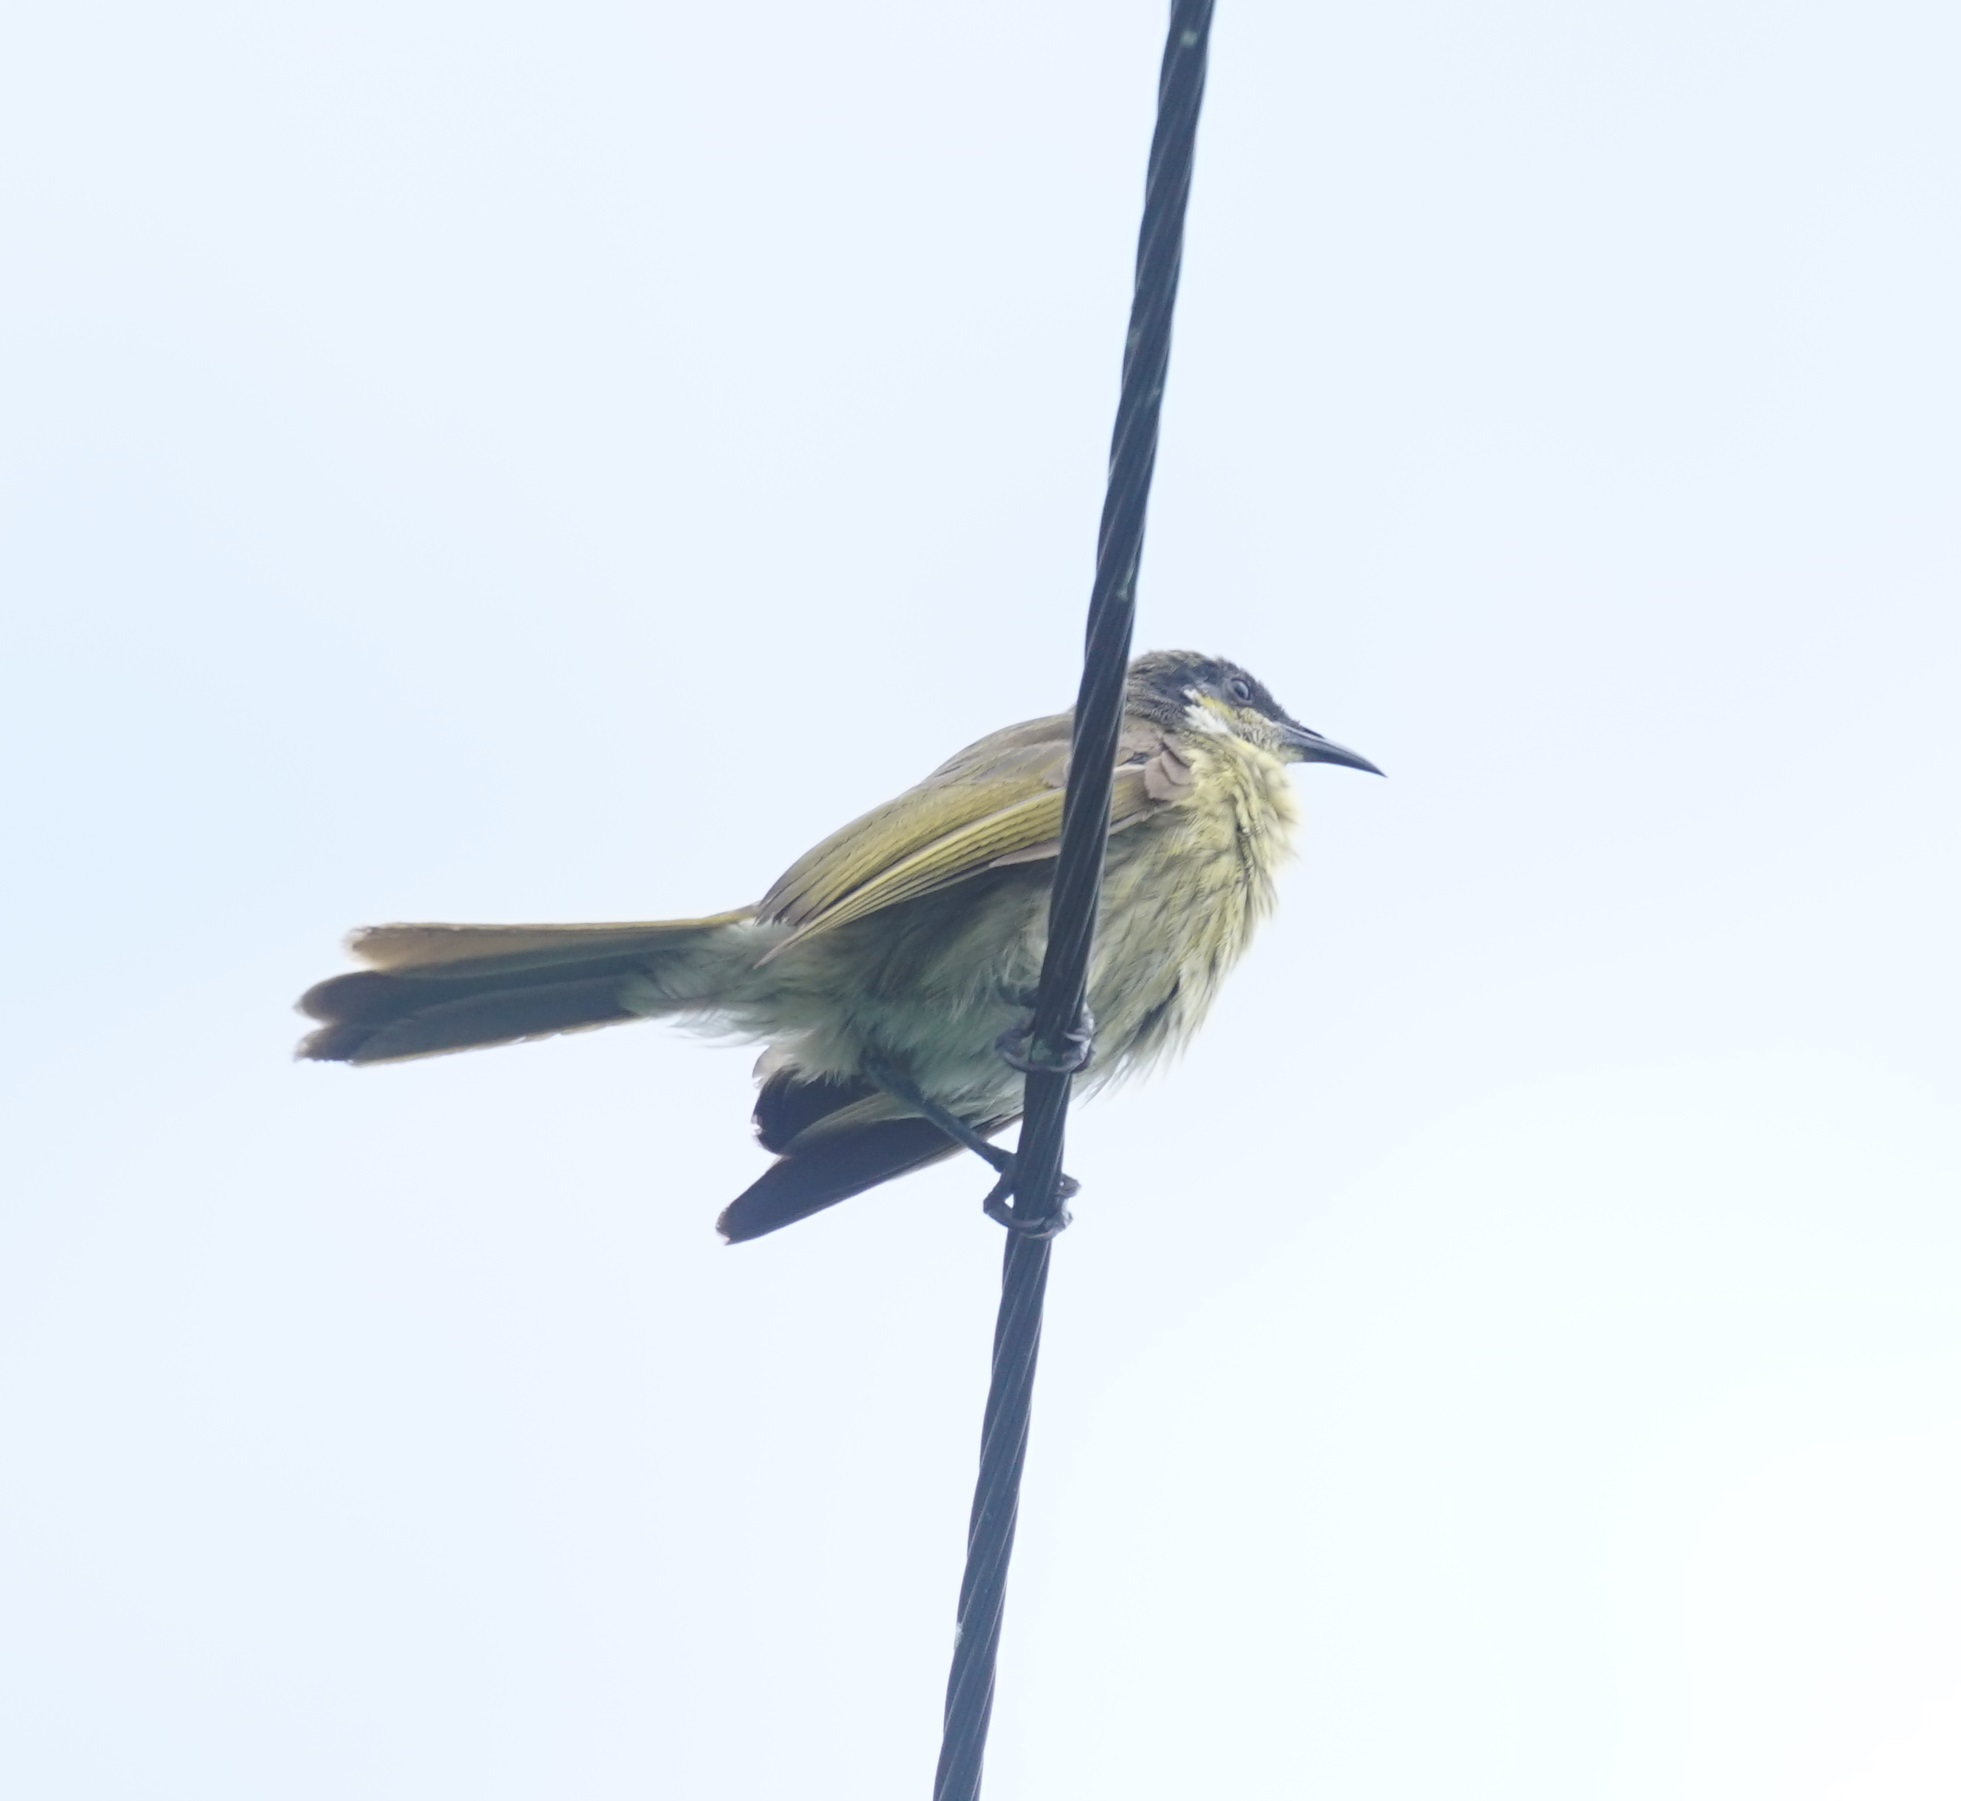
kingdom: Animalia
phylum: Chordata
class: Aves
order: Passeriformes
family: Meliphagidae
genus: Gavicalis
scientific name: Gavicalis versicolor
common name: Varied honeyeater
